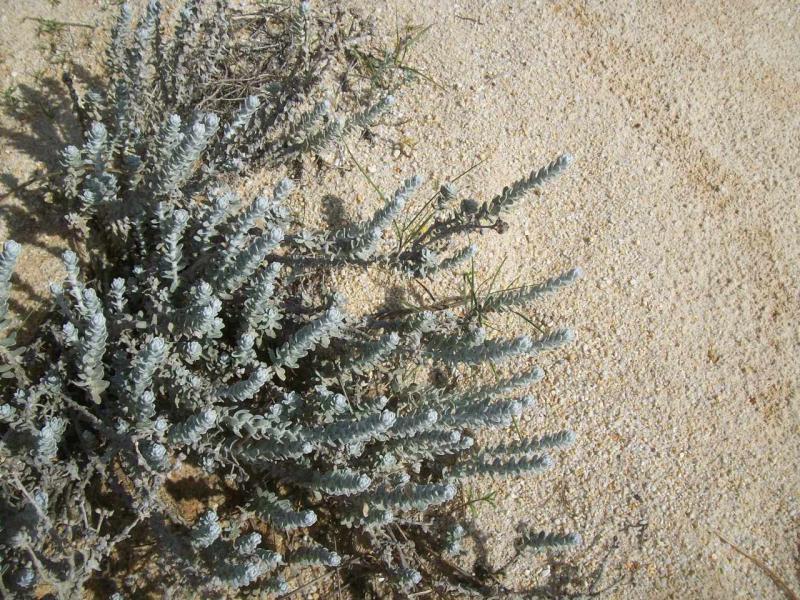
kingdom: Plantae
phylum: Tracheophyta
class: Magnoliopsida
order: Asterales
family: Asteraceae
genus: Achillea
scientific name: Achillea maritima
